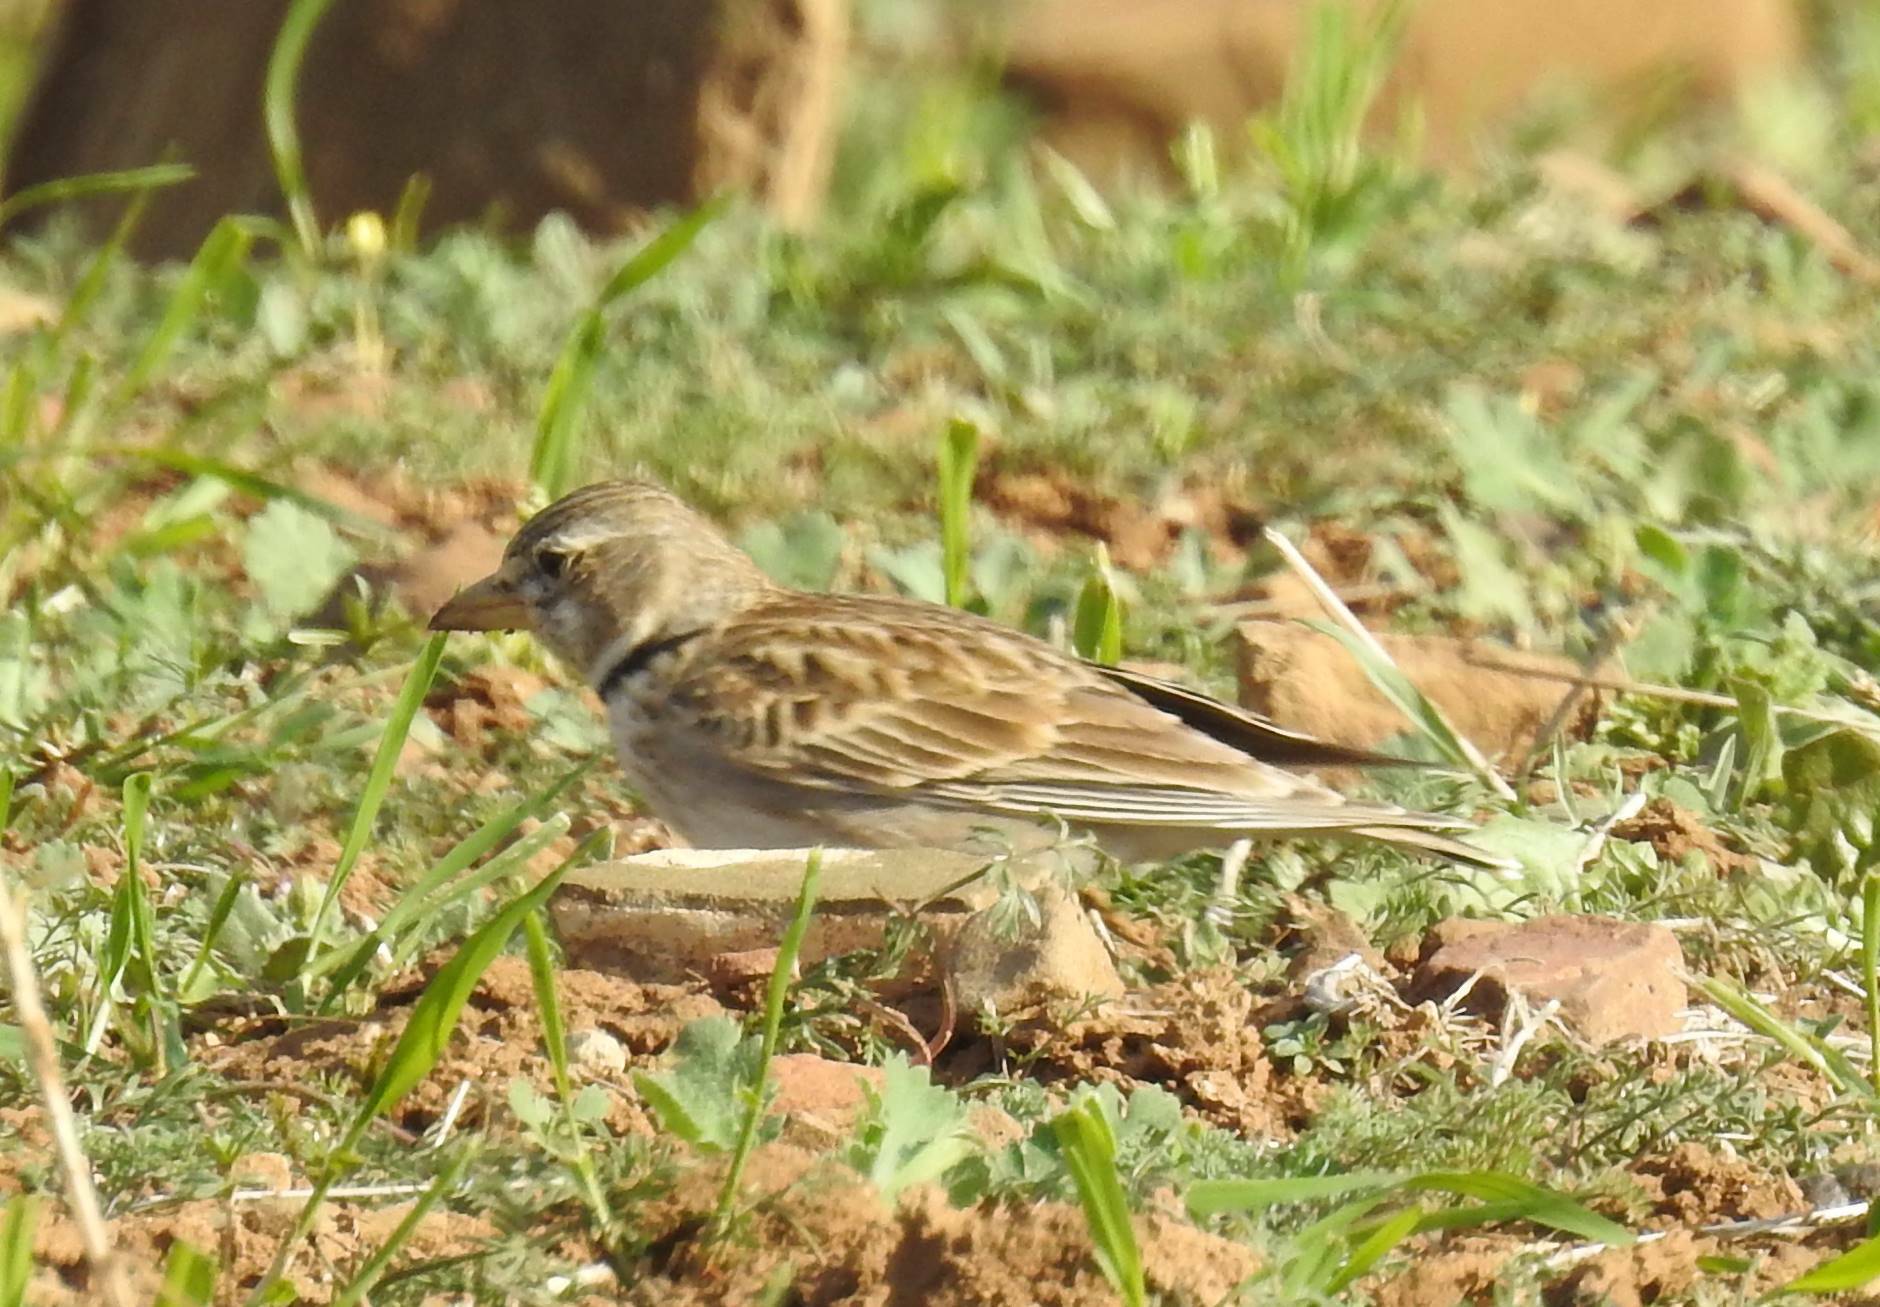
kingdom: Animalia
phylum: Chordata
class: Aves
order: Passeriformes
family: Alaudidae
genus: Melanocorypha
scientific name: Melanocorypha calandra
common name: Calandra lark
